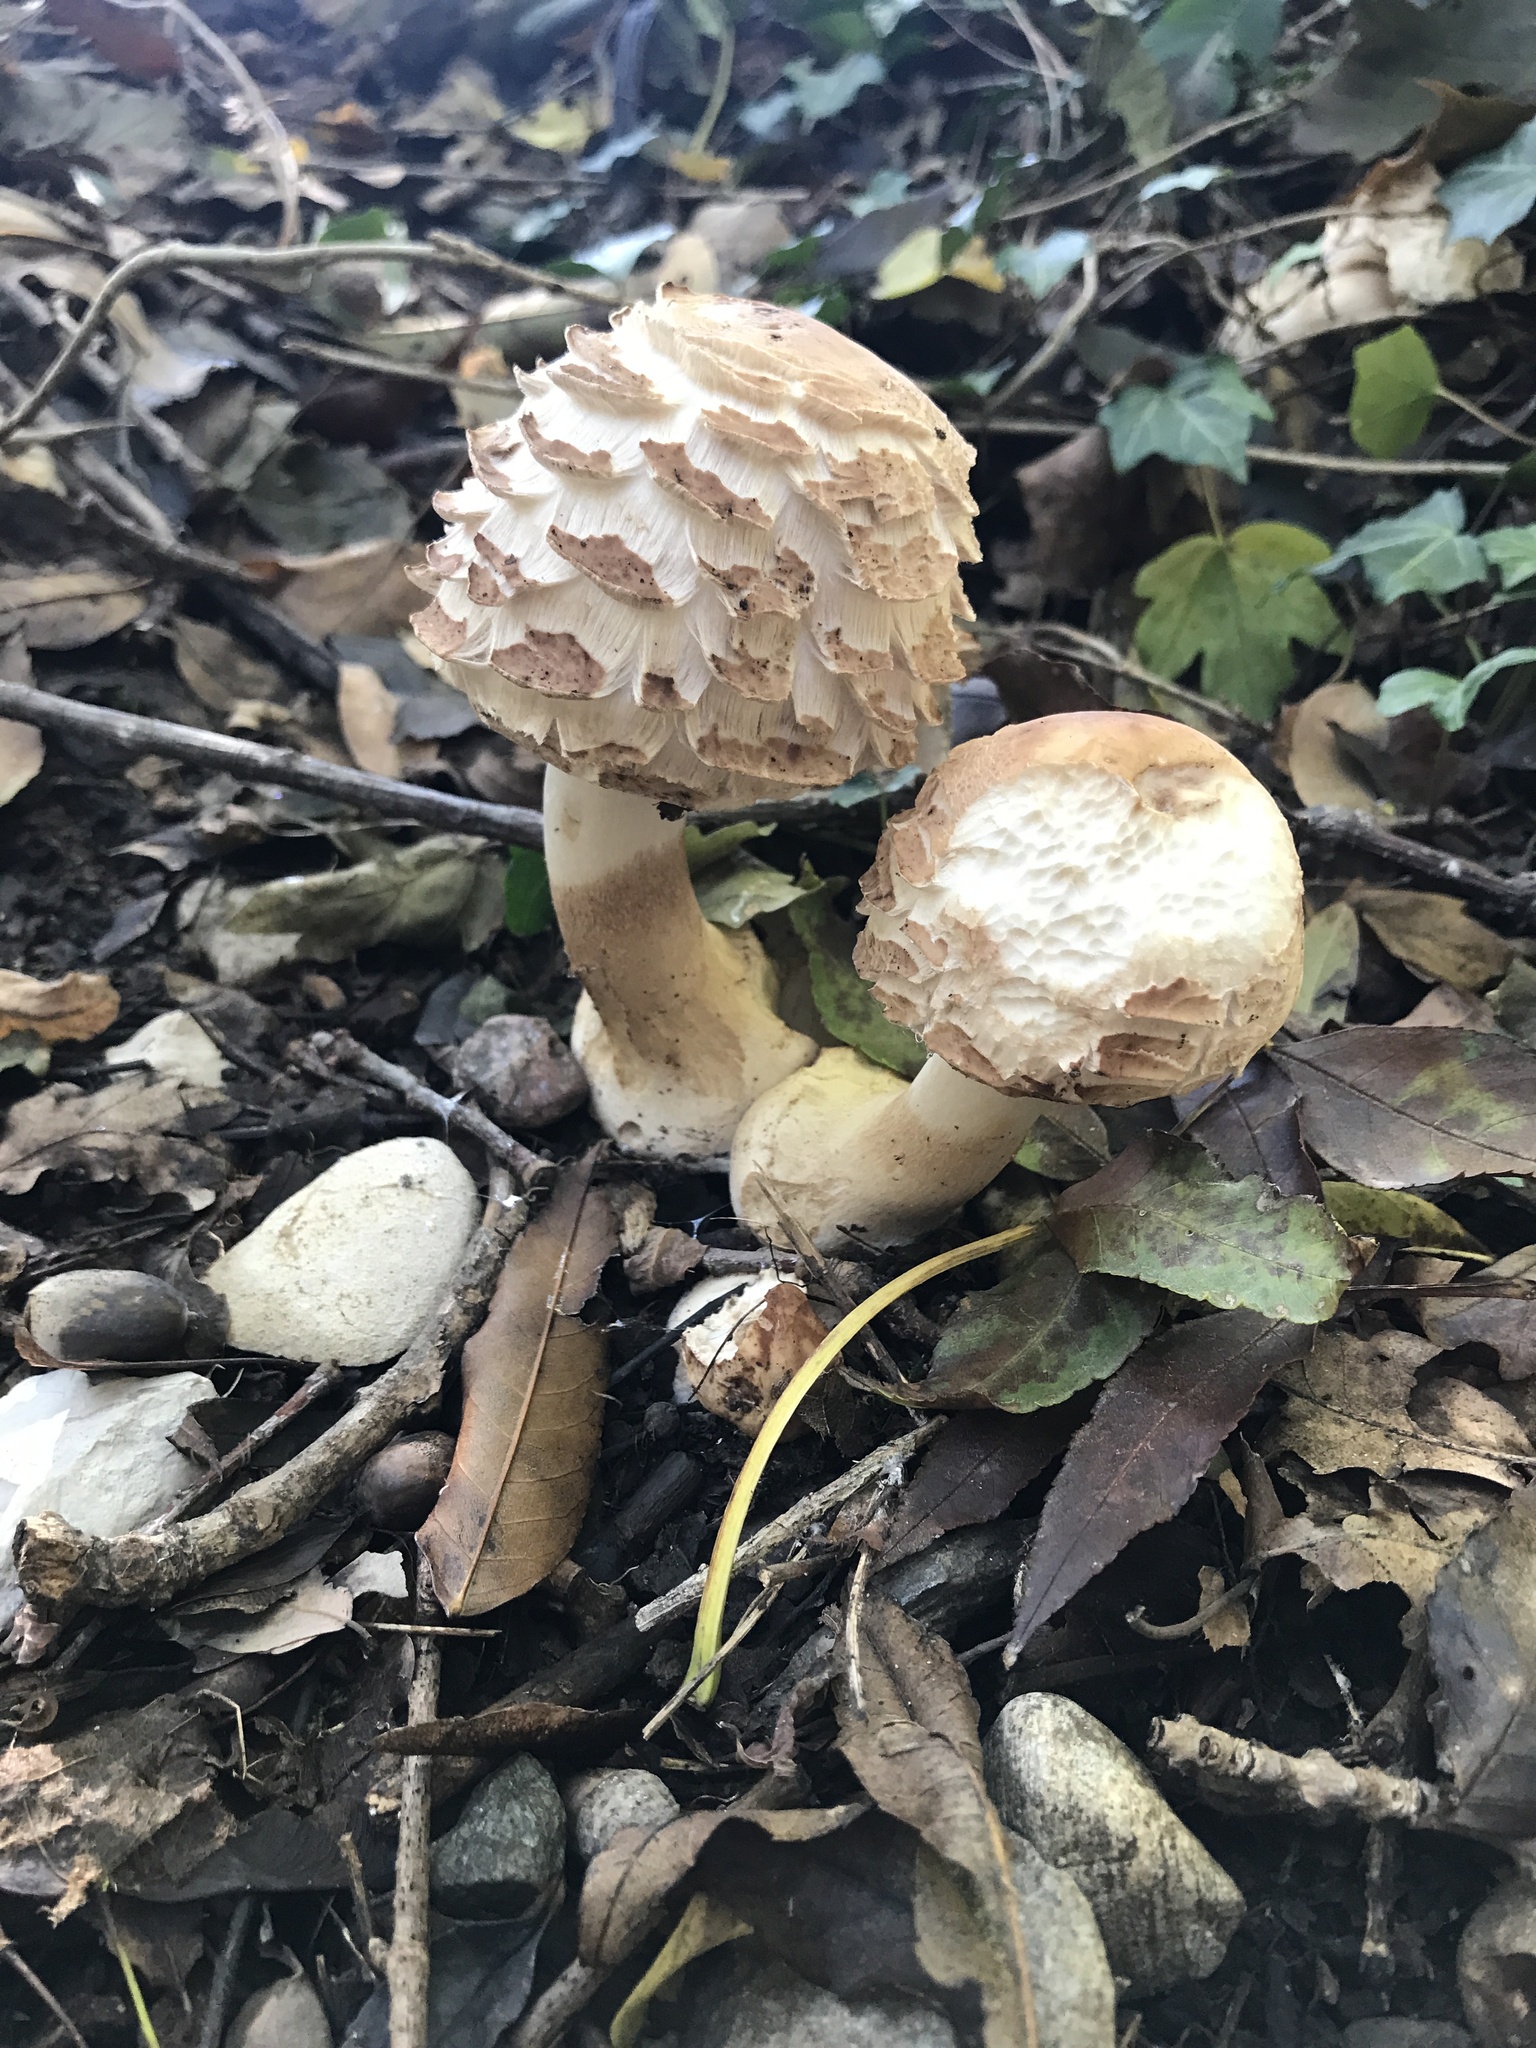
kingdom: Fungi
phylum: Basidiomycota
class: Agaricomycetes
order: Agaricales
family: Agaricaceae
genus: Chlorophyllum
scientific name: Chlorophyllum rhacodes
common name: Shaggy parasol
